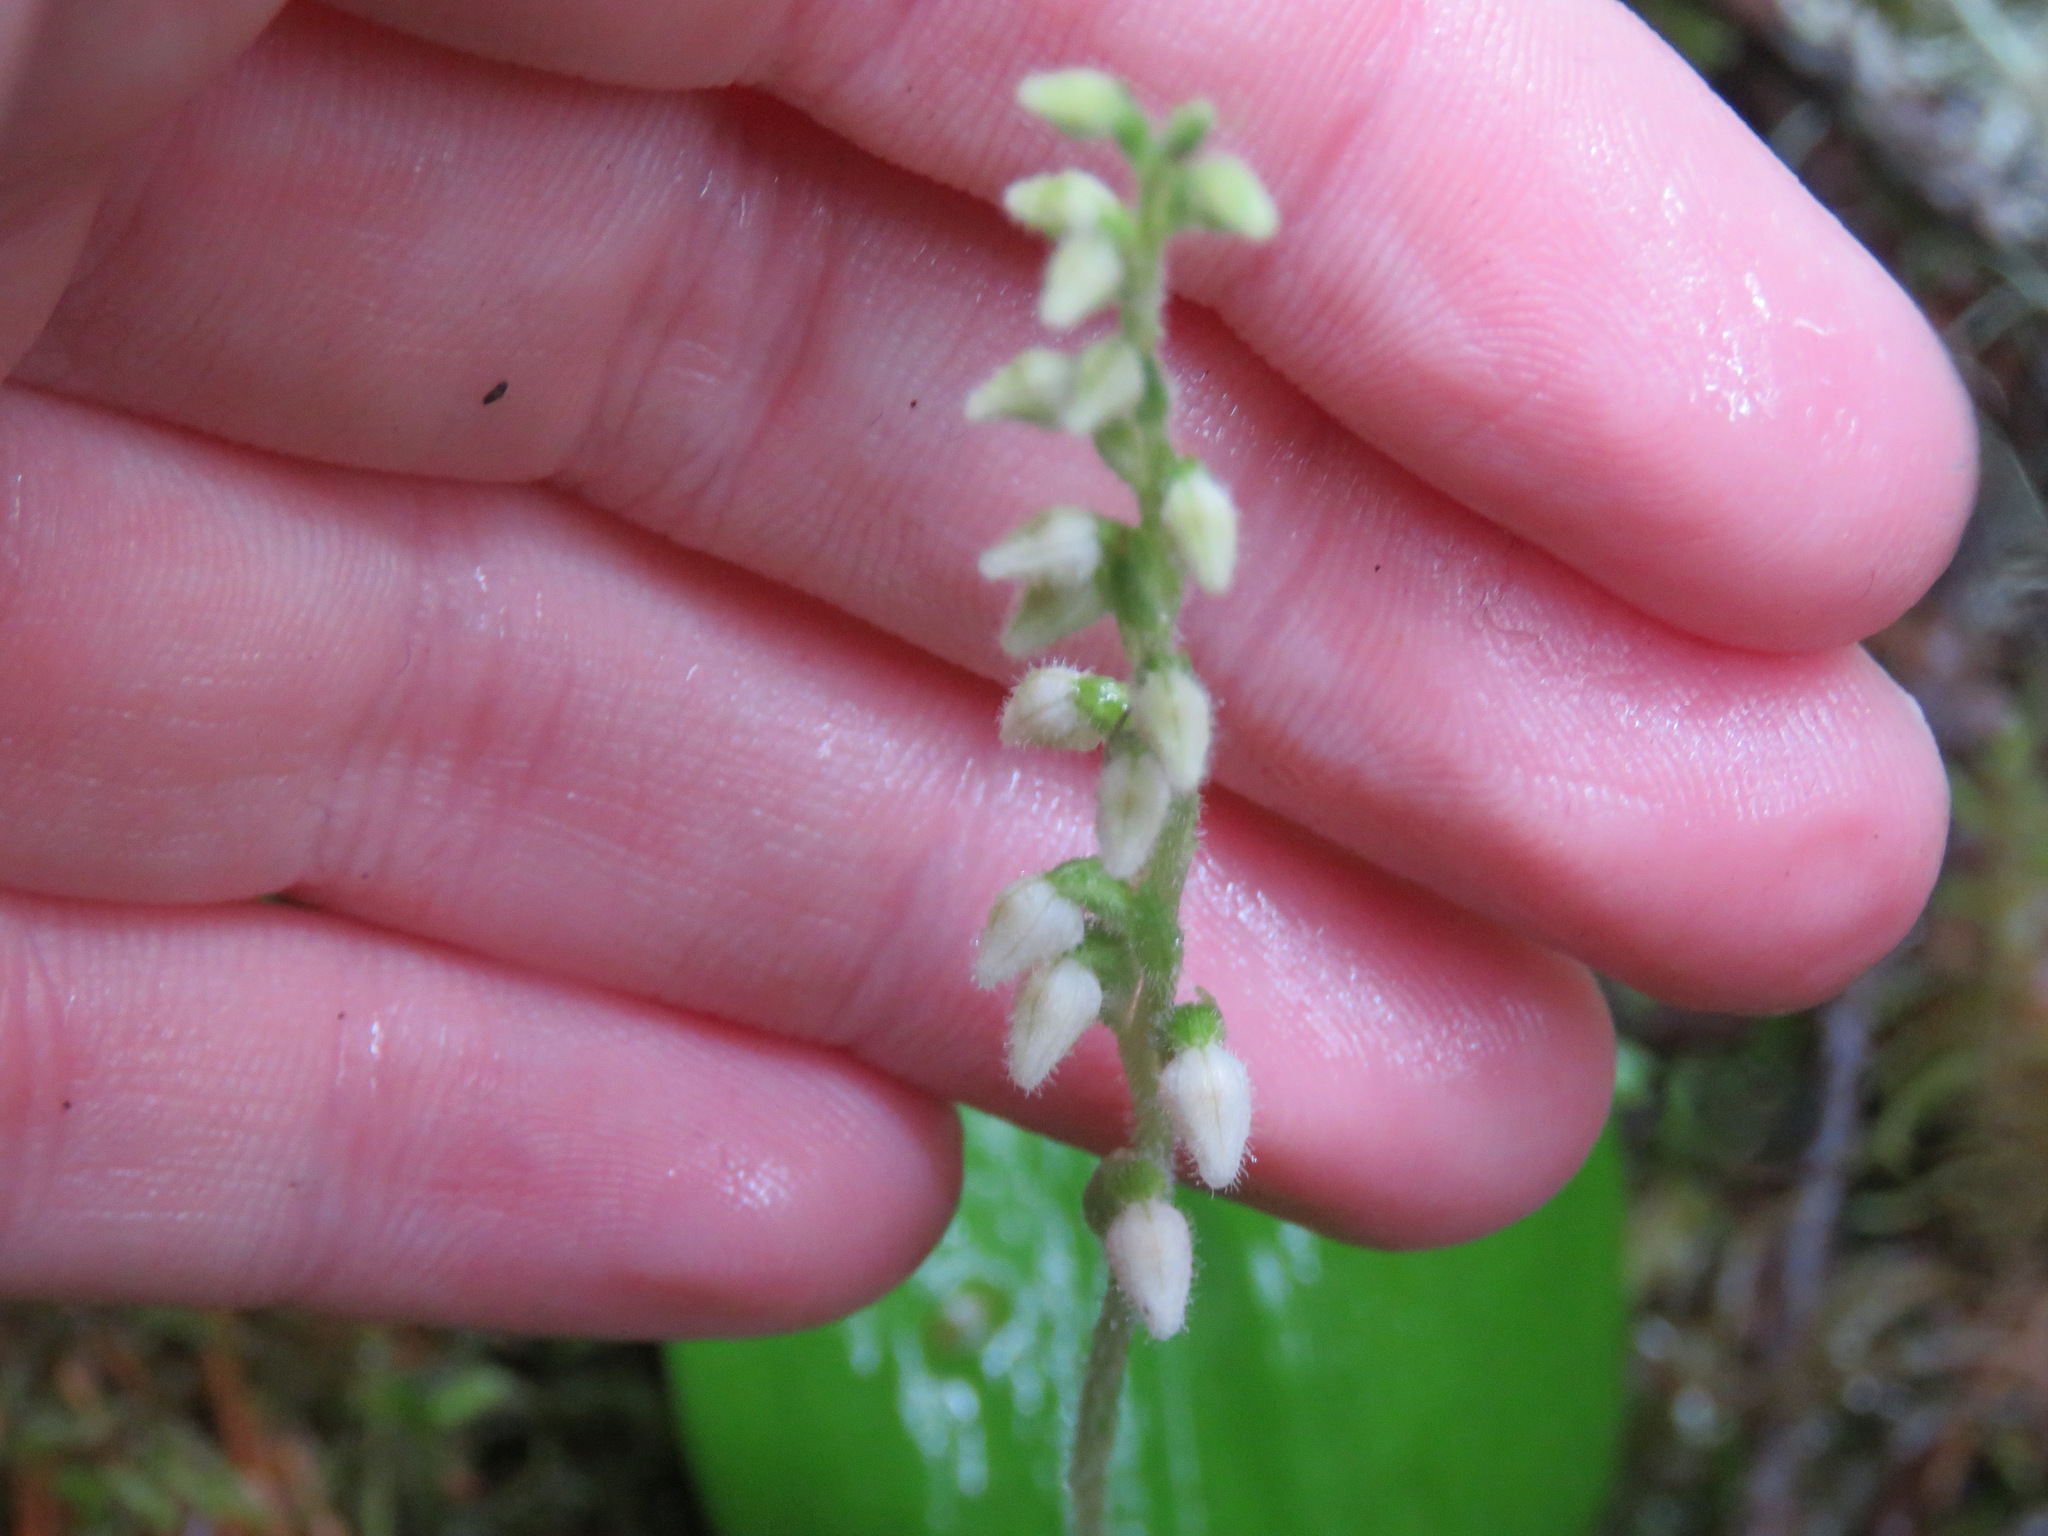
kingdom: Plantae
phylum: Tracheophyta
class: Liliopsida
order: Asparagales
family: Orchidaceae
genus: Goodyera
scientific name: Goodyera repens
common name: Creeping lady's-tresses
